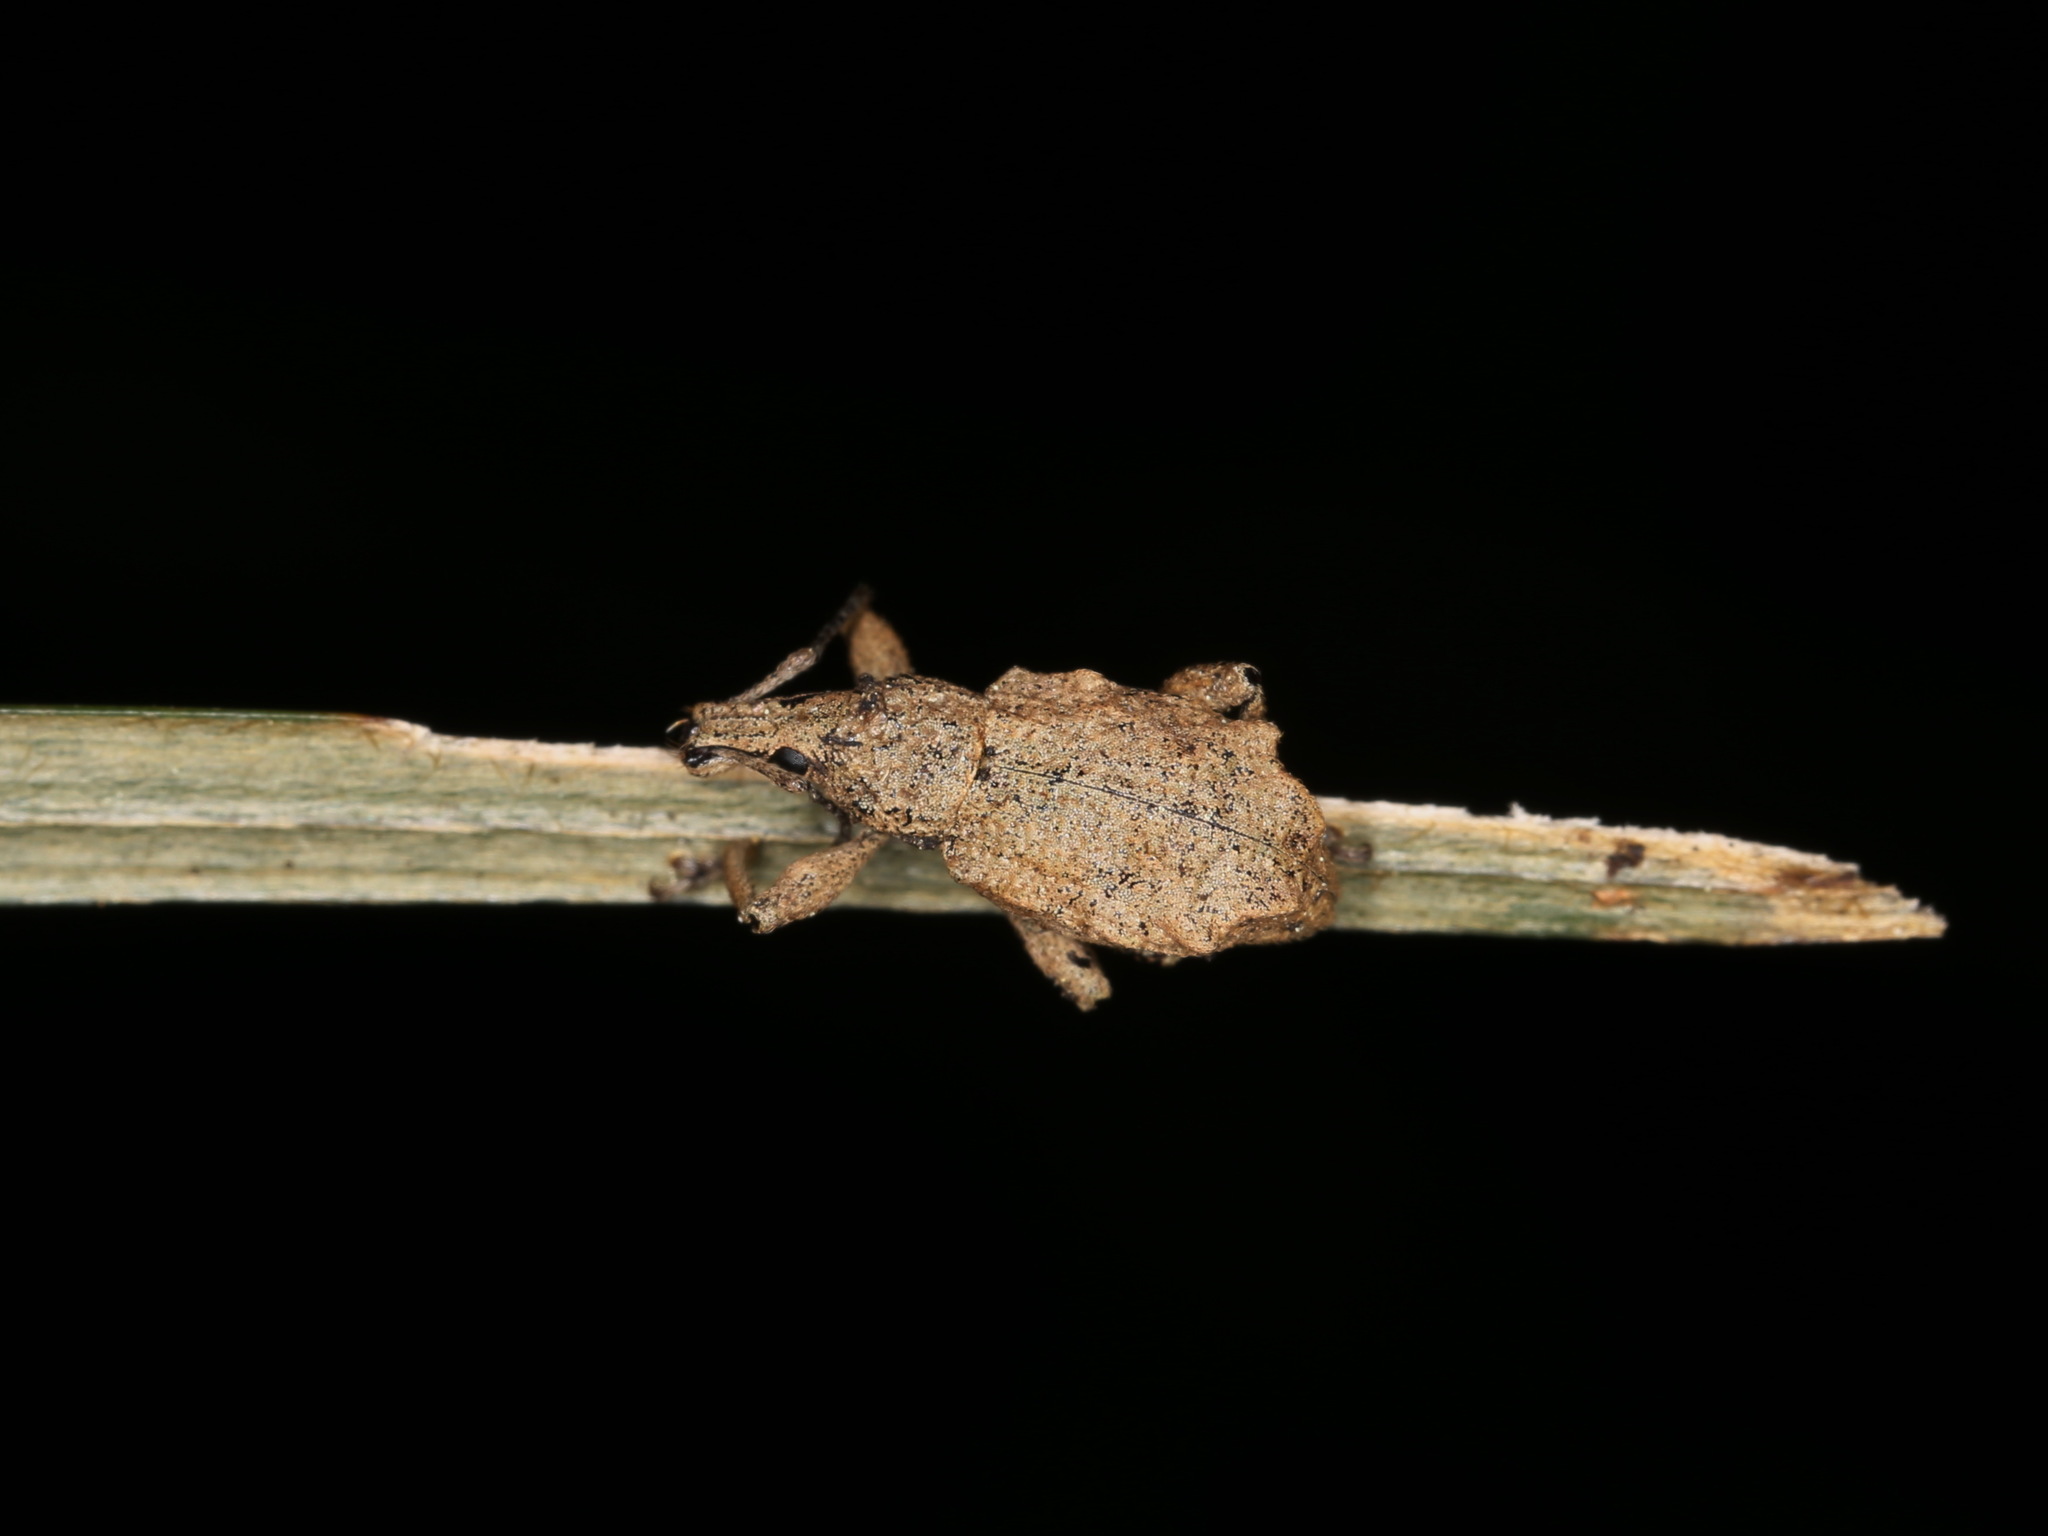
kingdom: Animalia
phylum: Arthropoda
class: Insecta
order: Coleoptera
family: Curculionidae
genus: Catoptes
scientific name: Catoptes censorius
